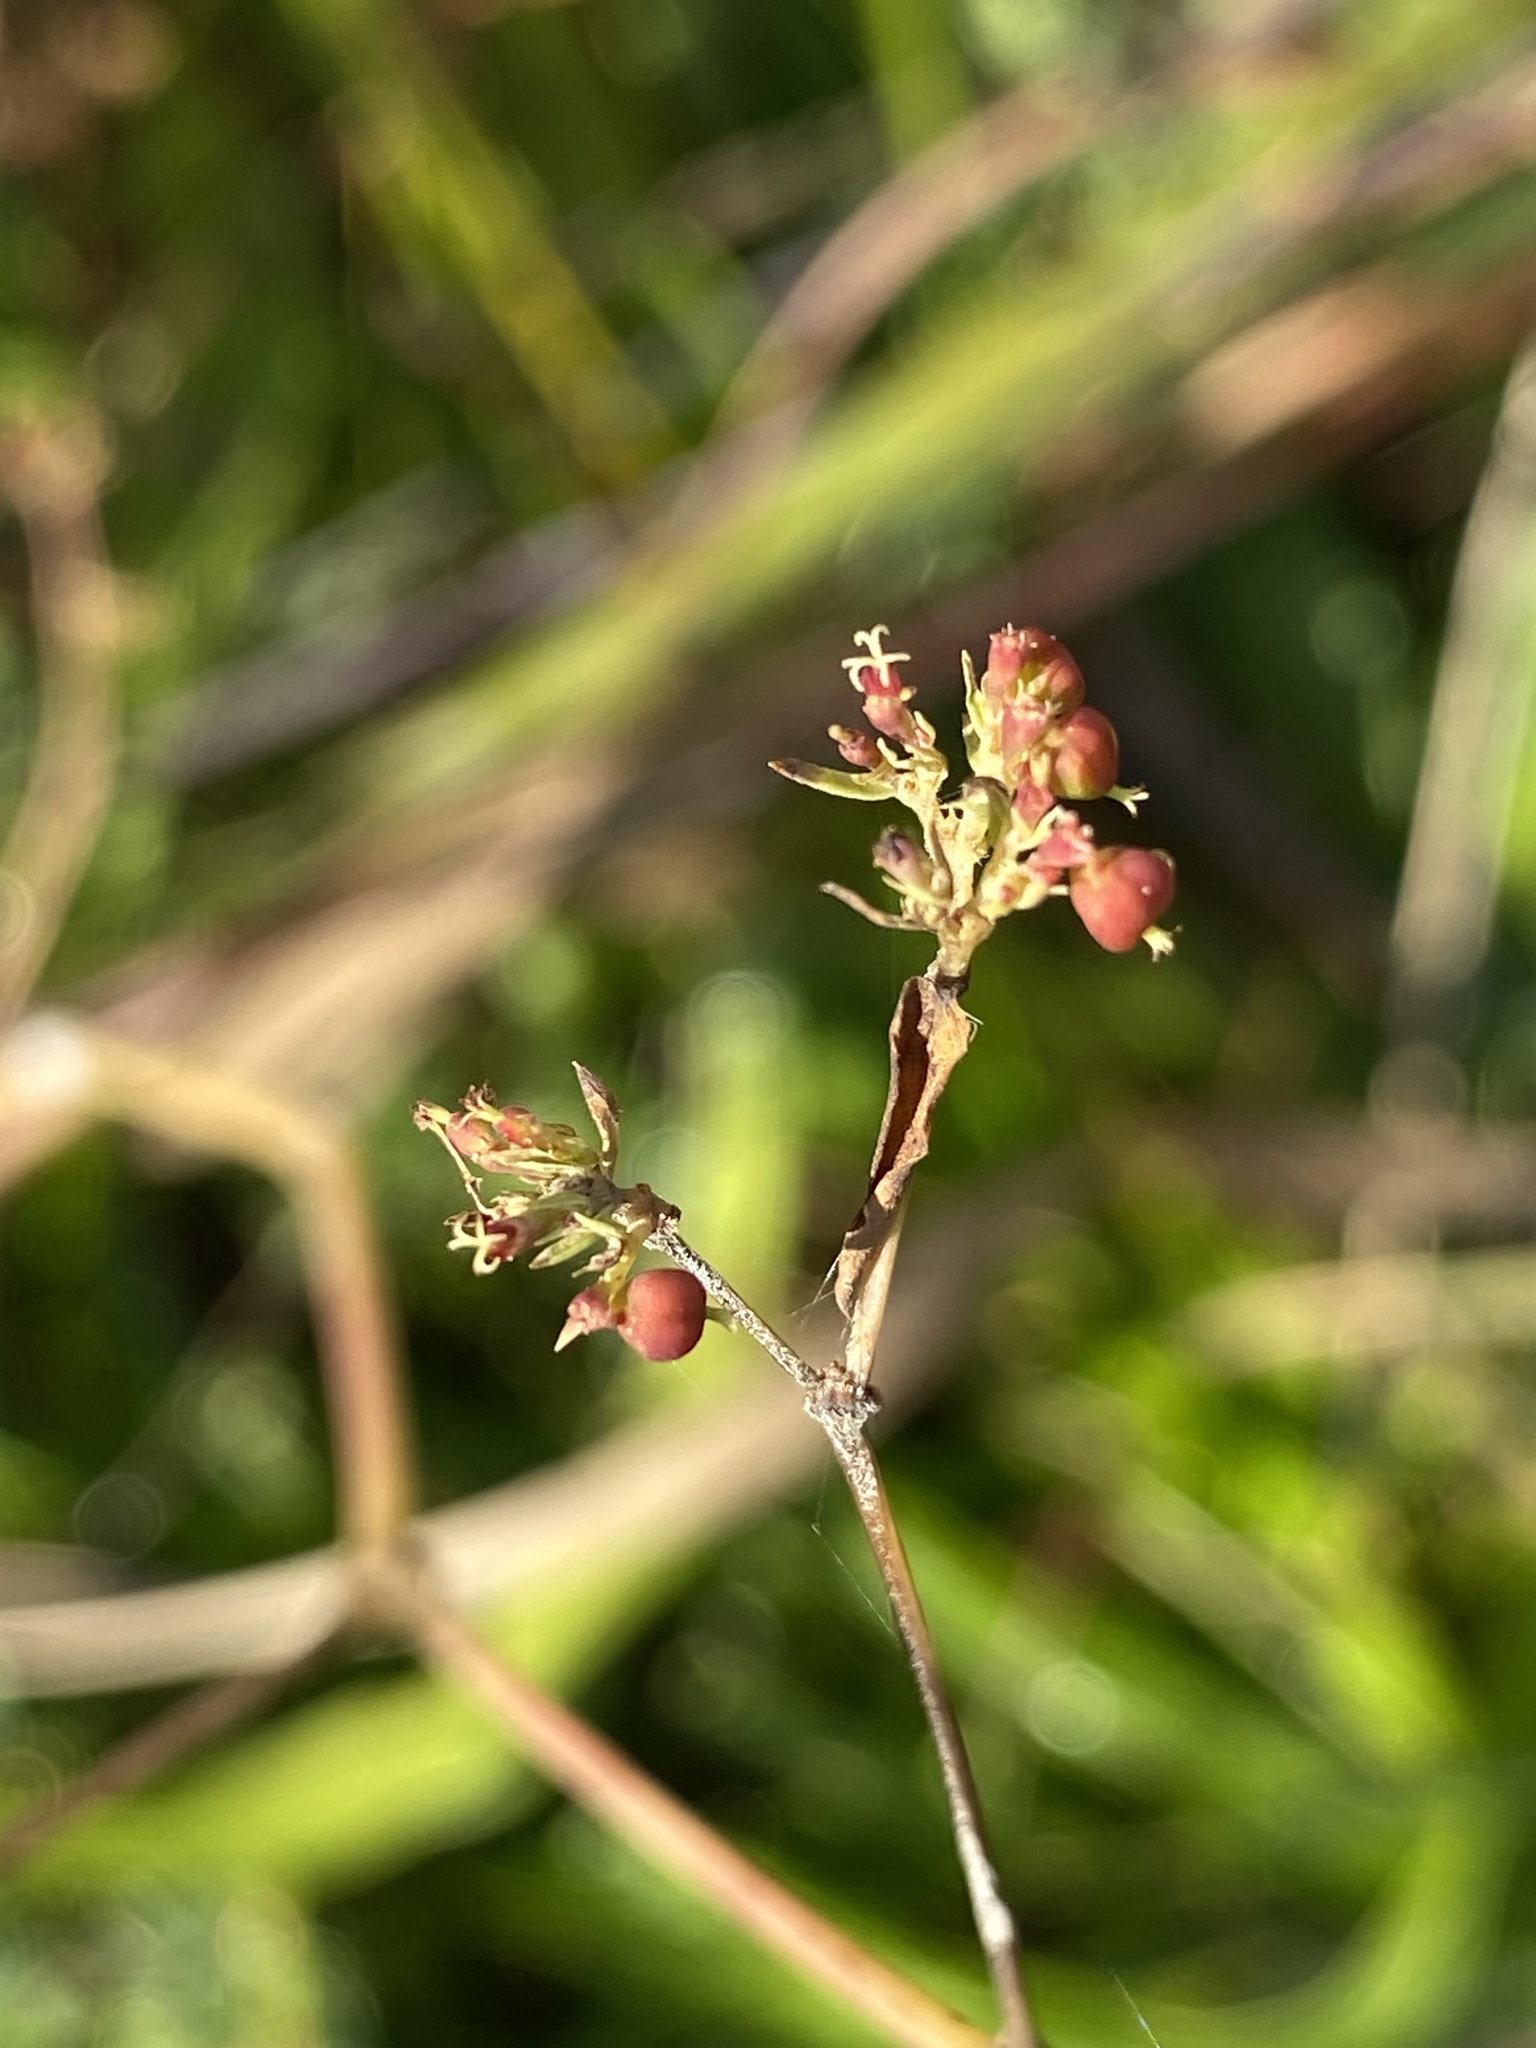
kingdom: Plantae
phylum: Tracheophyta
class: Magnoliopsida
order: Malpighiales
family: Euphorbiaceae
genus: Euphorbia
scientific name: Euphorbia nutans
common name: Eyebane
